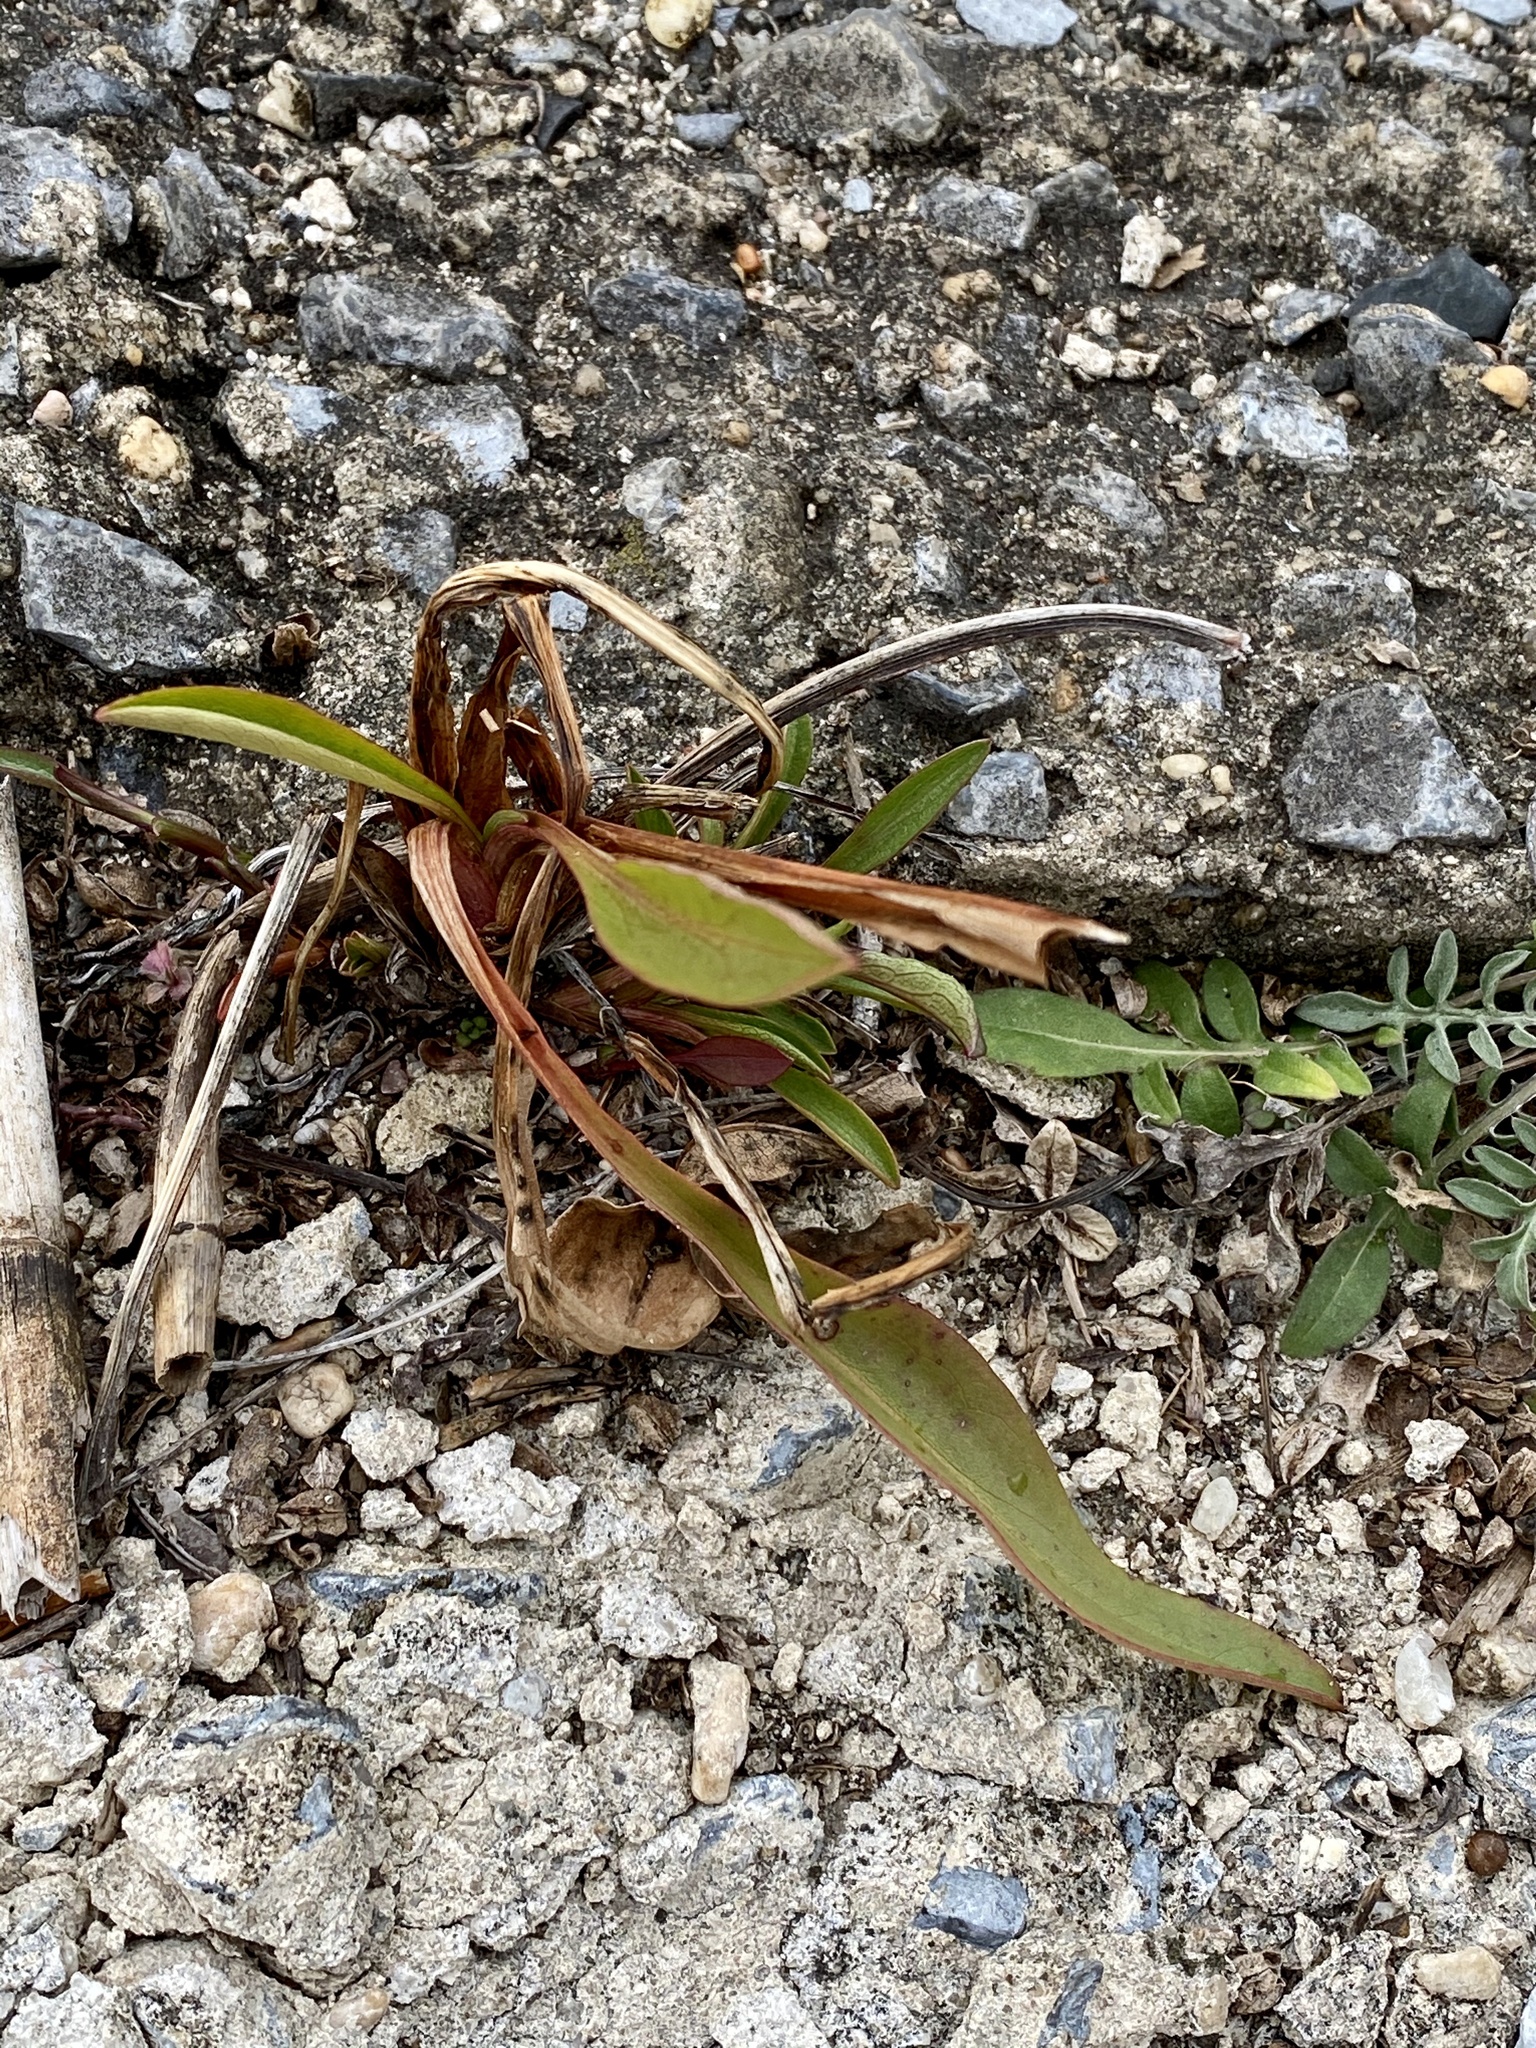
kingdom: Plantae
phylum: Tracheophyta
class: Magnoliopsida
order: Asterales
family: Asteraceae
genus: Solidago
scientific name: Solidago sempervirens
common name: Salt-marsh goldenrod
